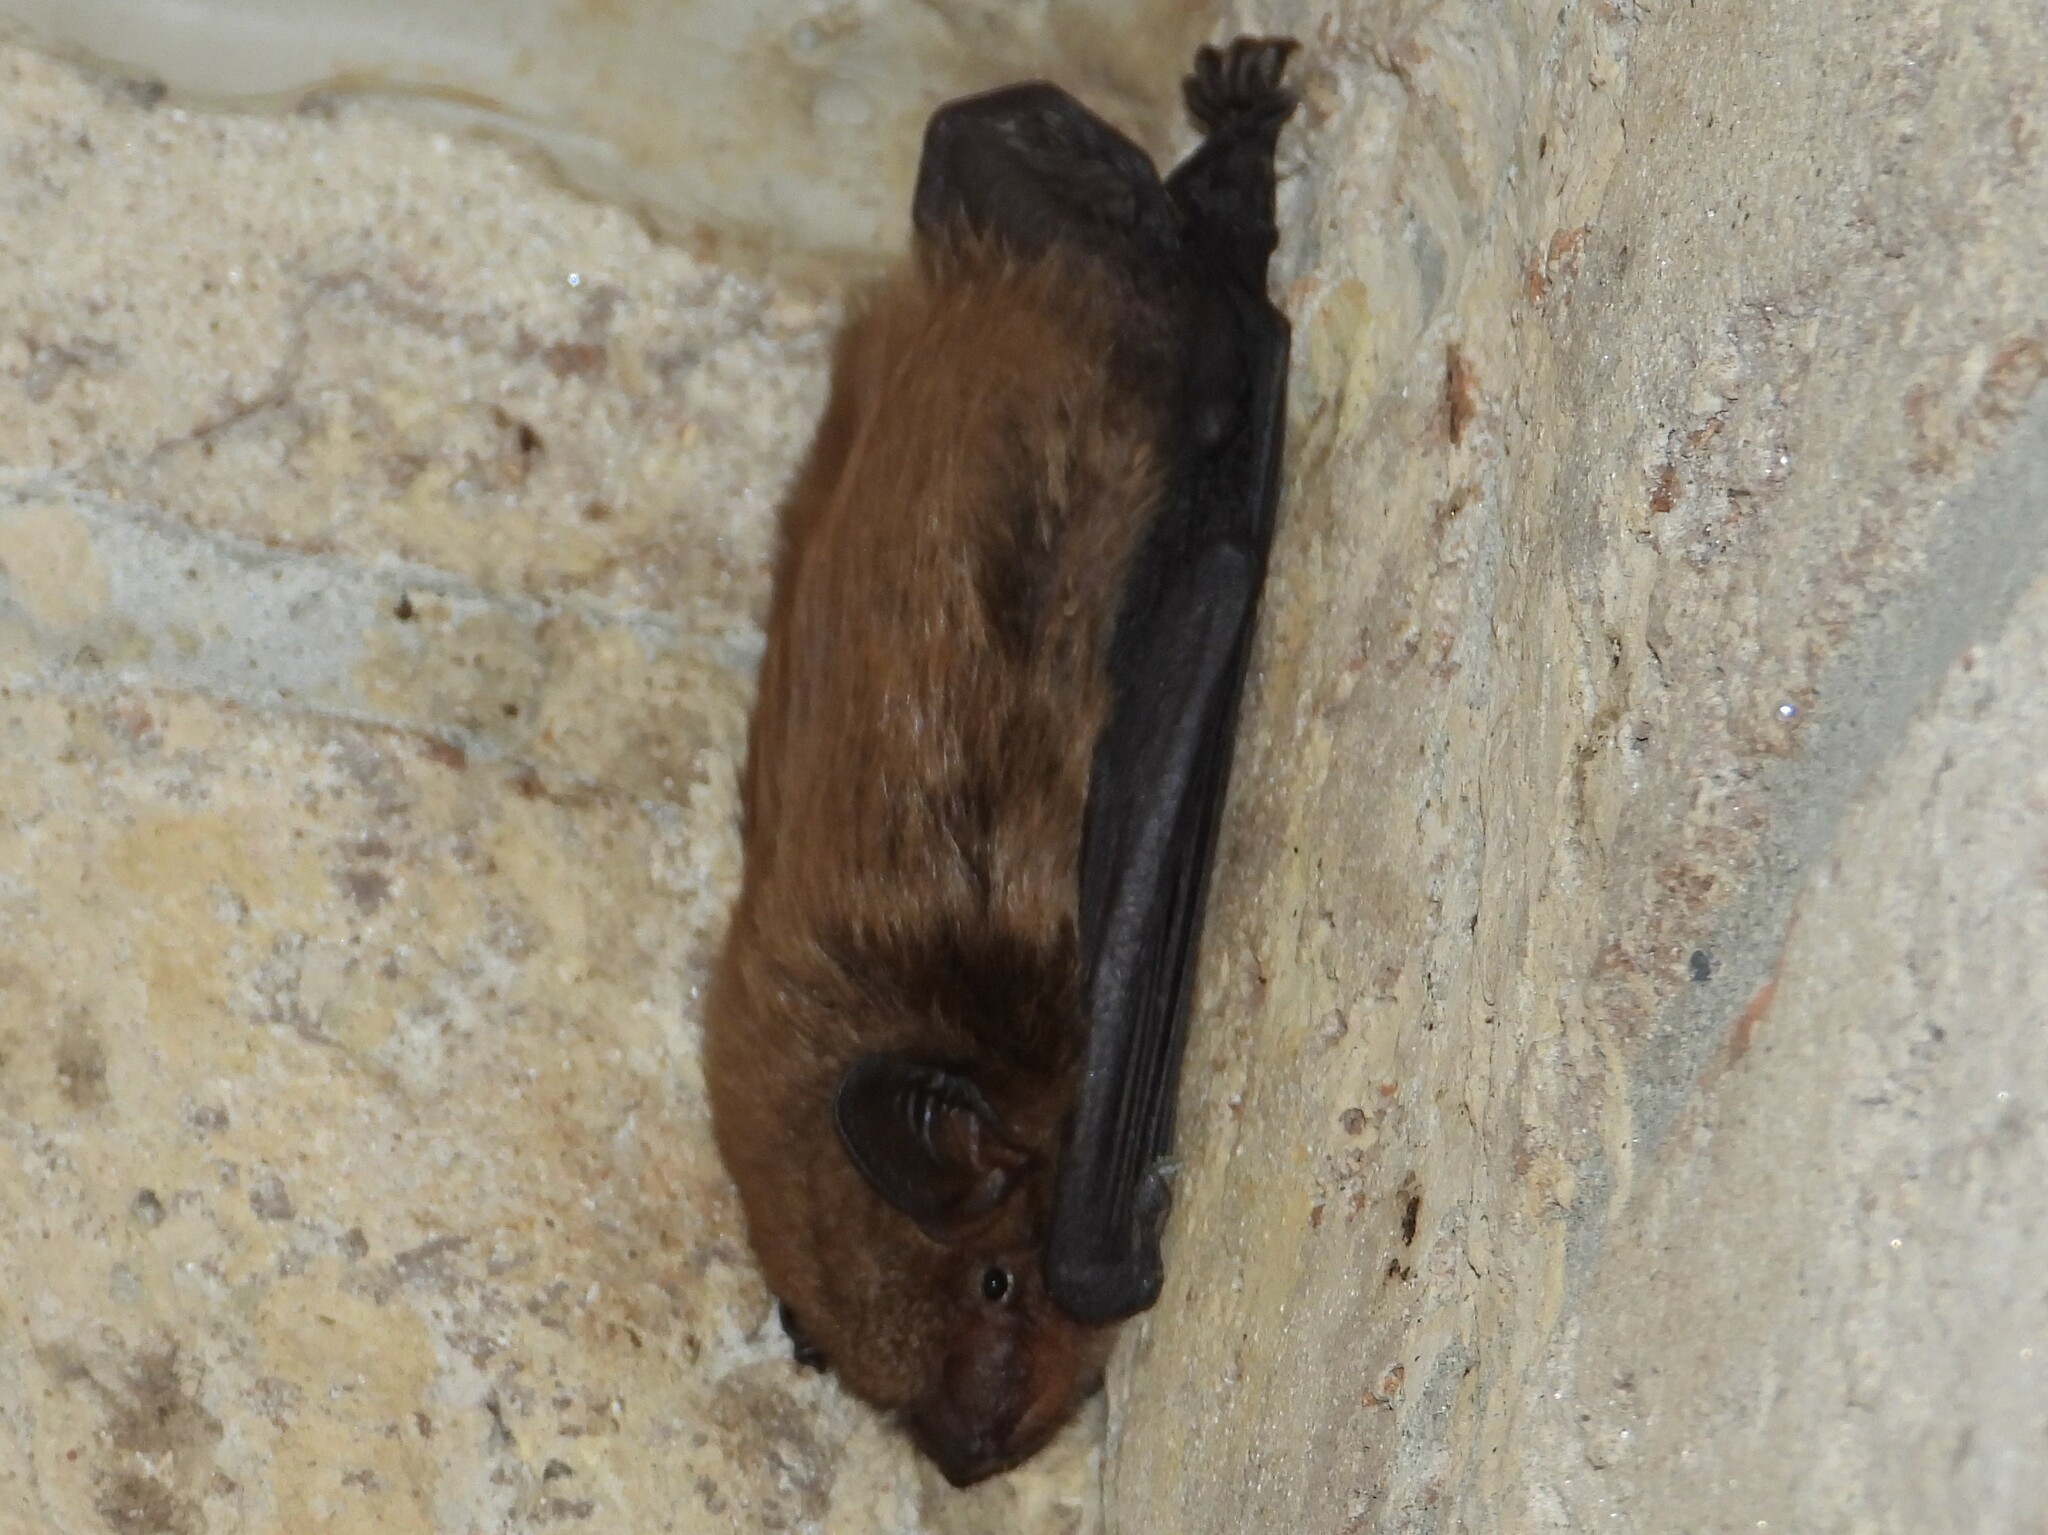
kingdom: Animalia
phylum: Chordata
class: Mammalia
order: Chiroptera
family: Vespertilionidae
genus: Eptesicus
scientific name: Eptesicus fuscus
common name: Big brown bat
